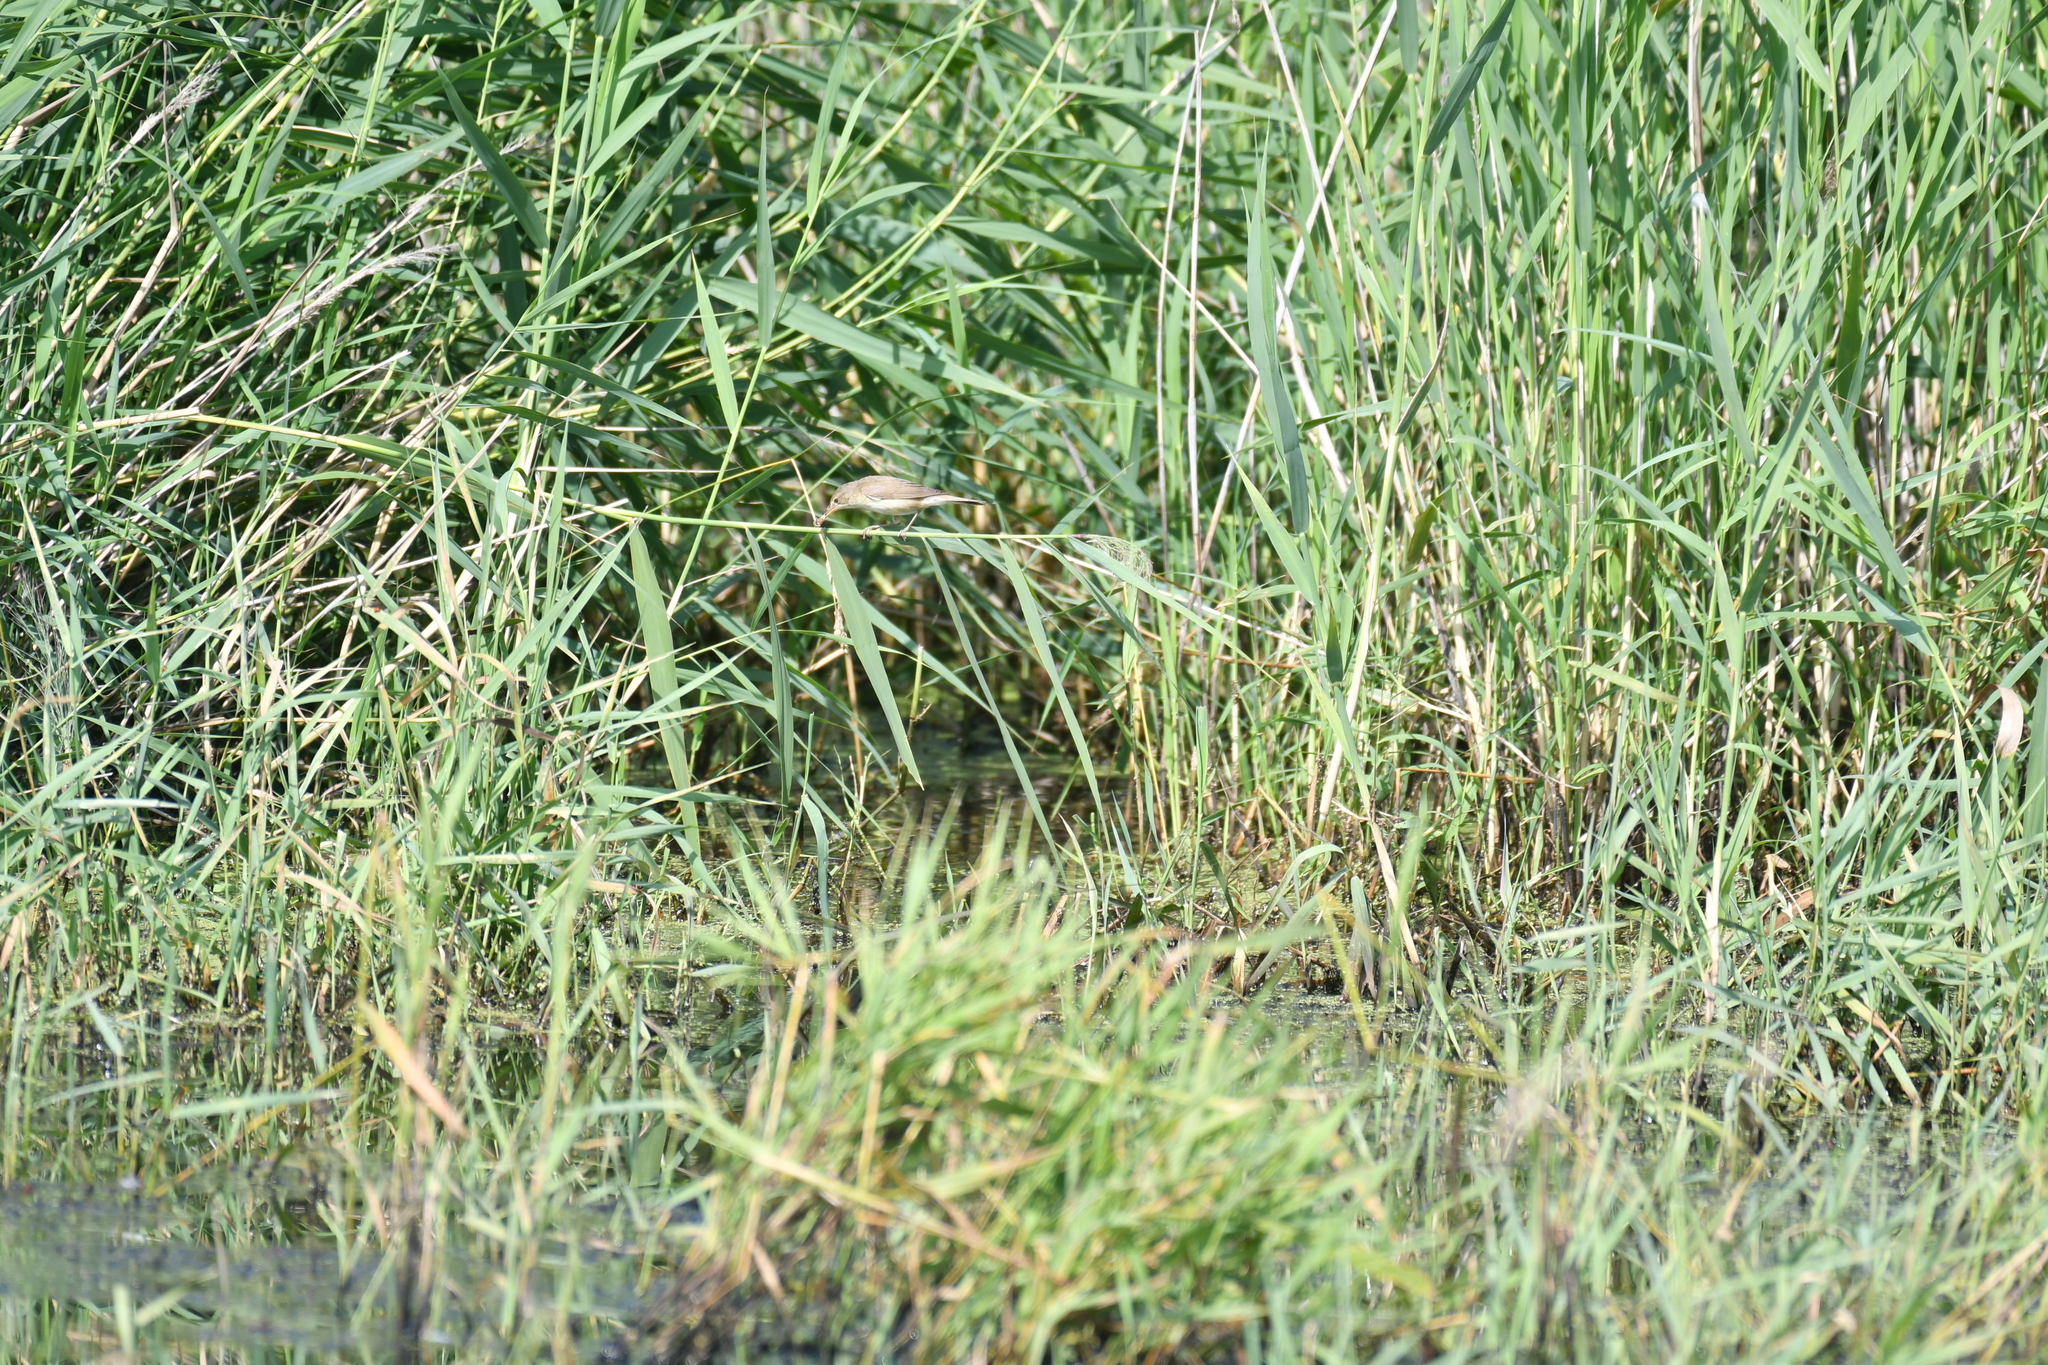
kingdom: Animalia
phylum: Chordata
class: Aves
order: Passeriformes
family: Acrocephalidae
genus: Acrocephalus
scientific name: Acrocephalus scirpaceus
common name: Eurasian reed warbler
